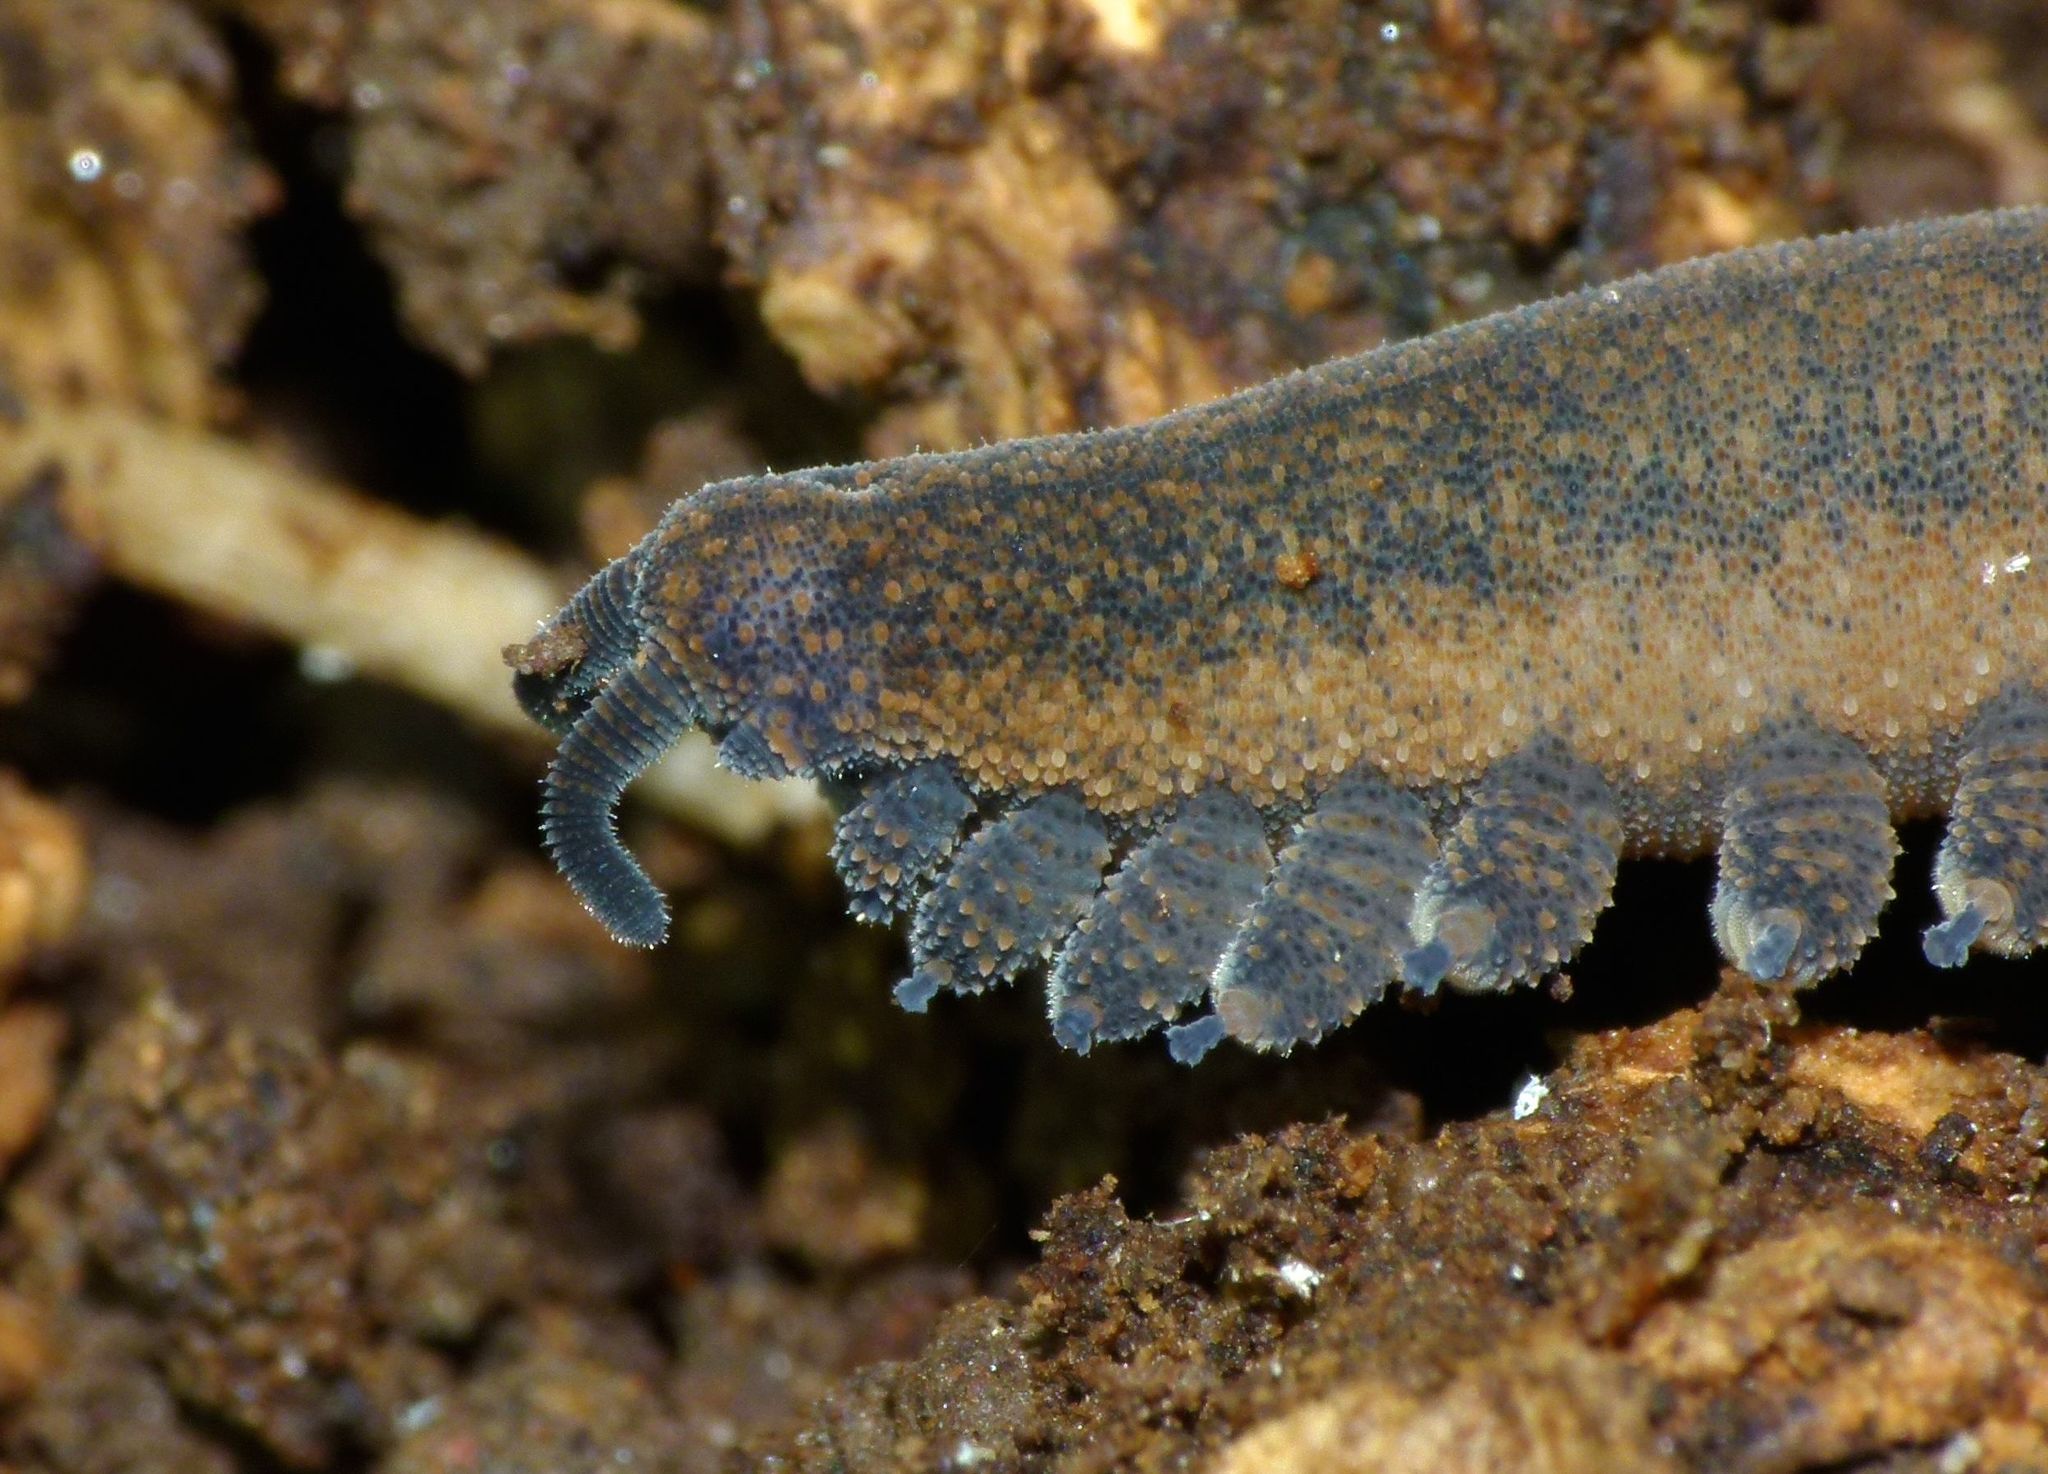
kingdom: Animalia
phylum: Onychophora
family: Peripatopsidae
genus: Peripatoides
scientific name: Peripatoides
